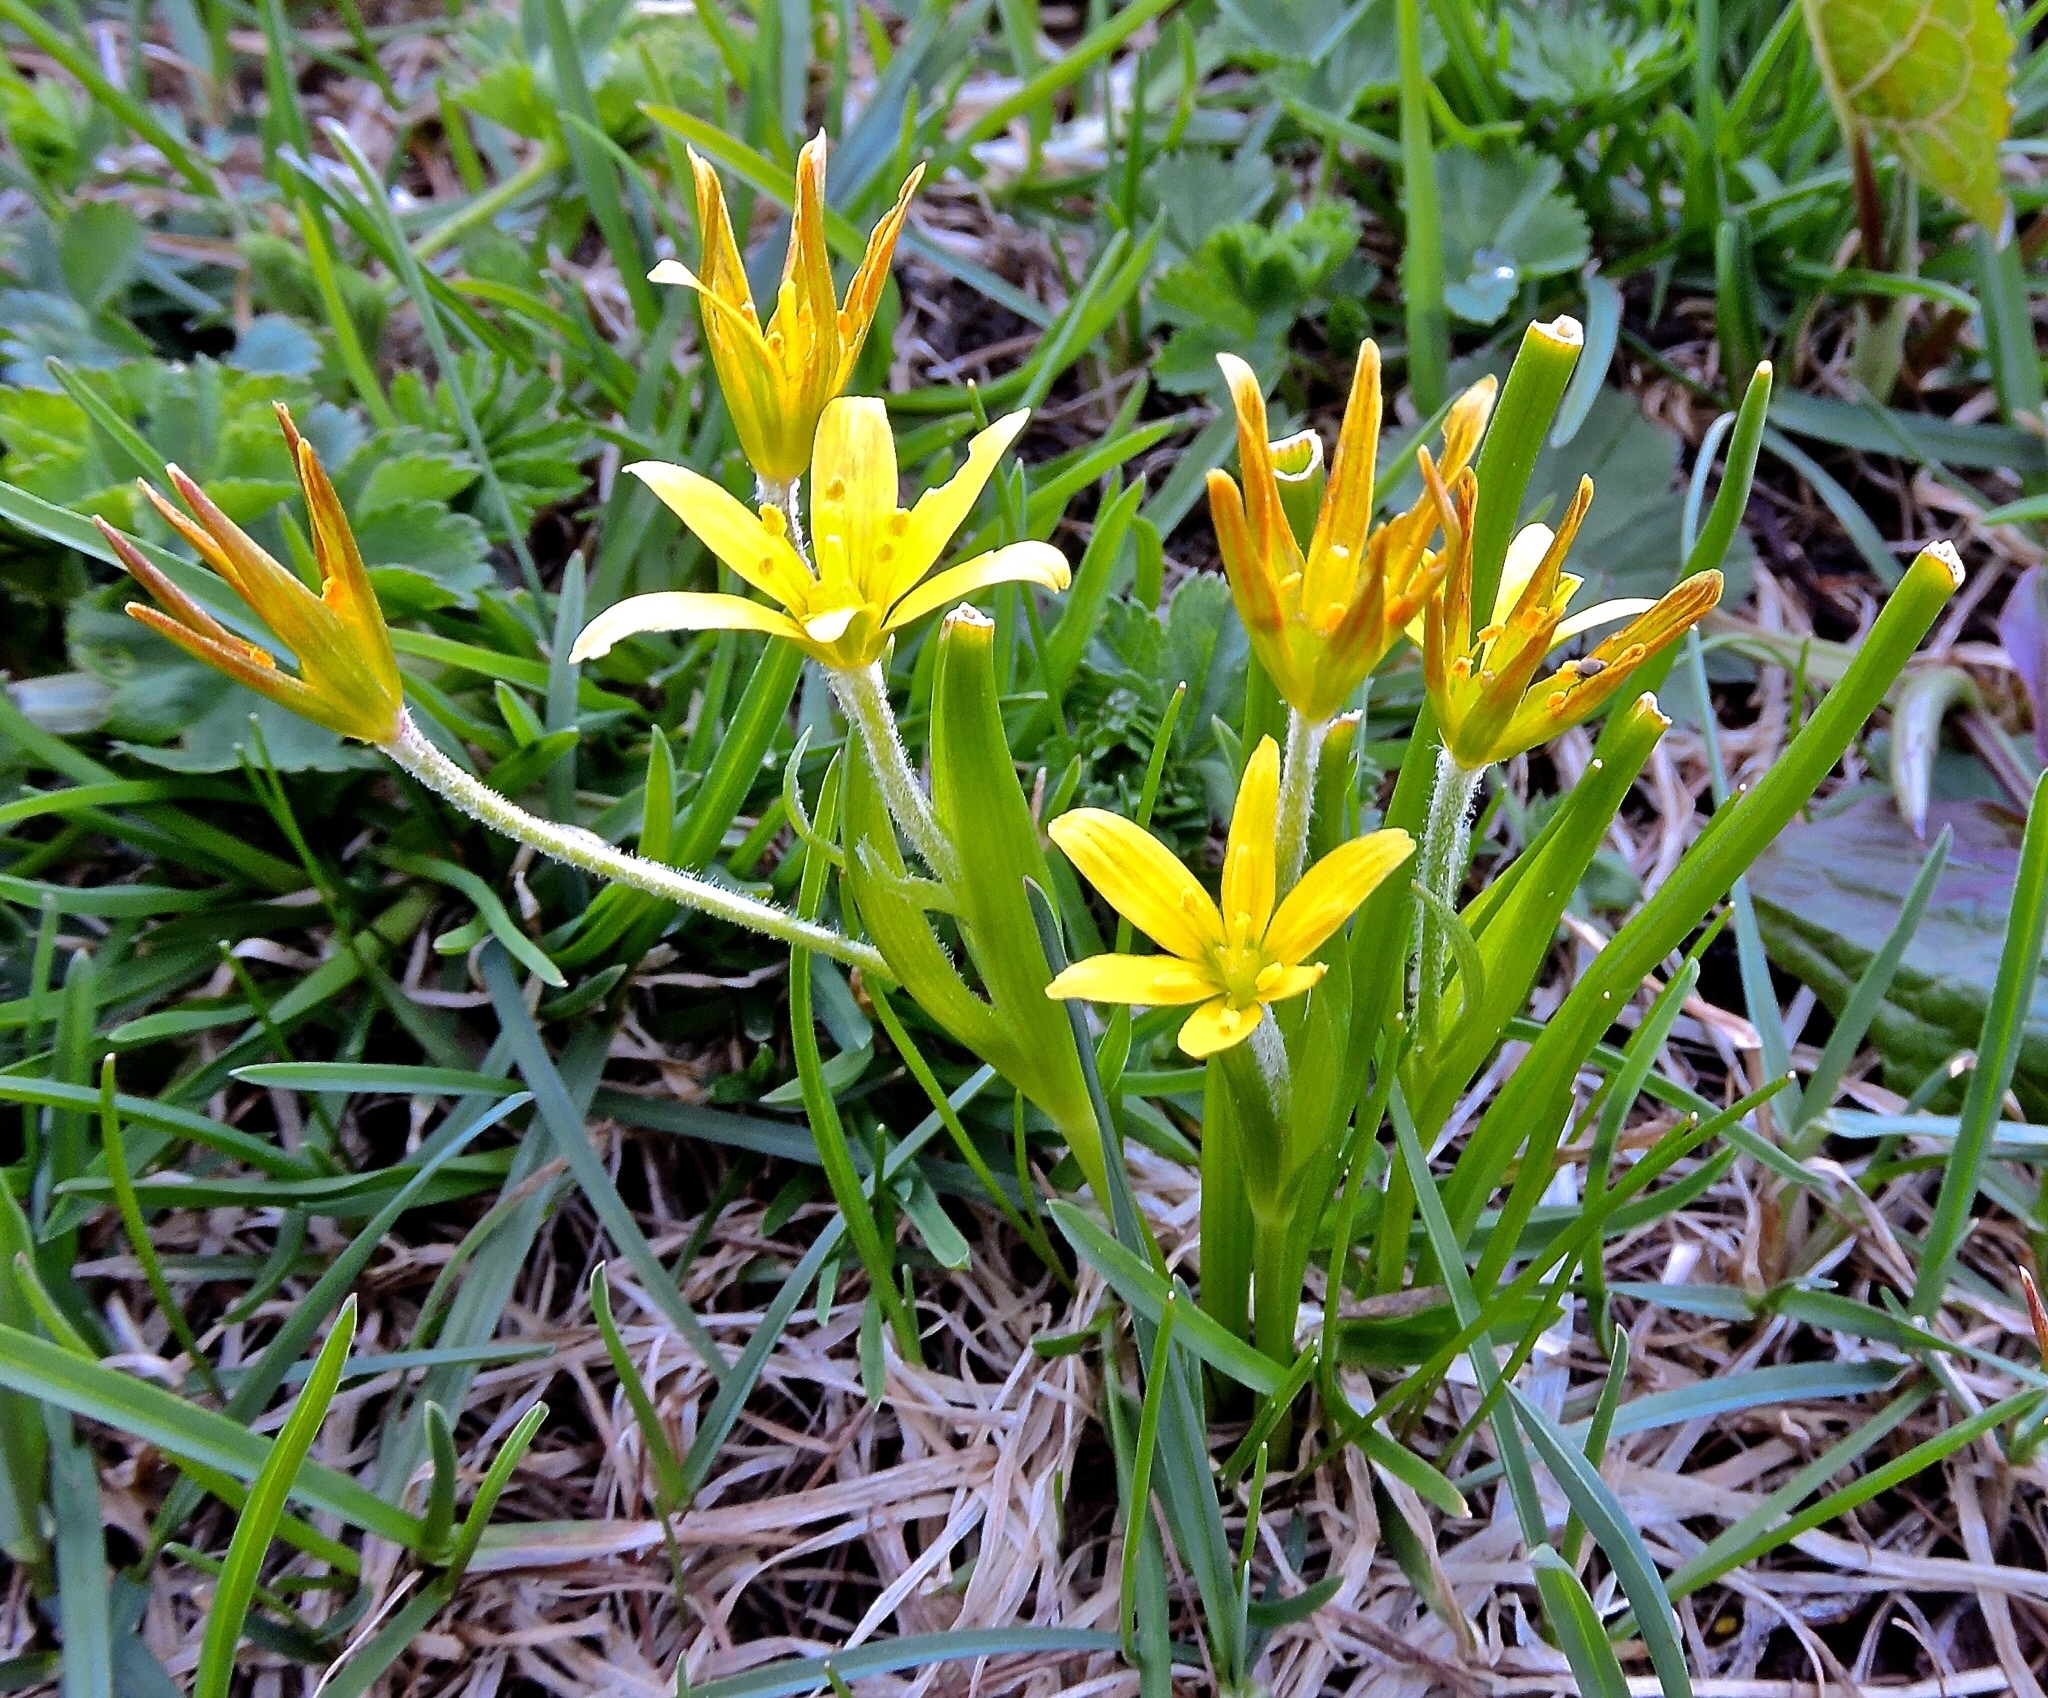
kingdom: Plantae
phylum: Tracheophyta
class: Liliopsida
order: Liliales
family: Liliaceae
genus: Gagea
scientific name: Gagea fragifera
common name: Lily
